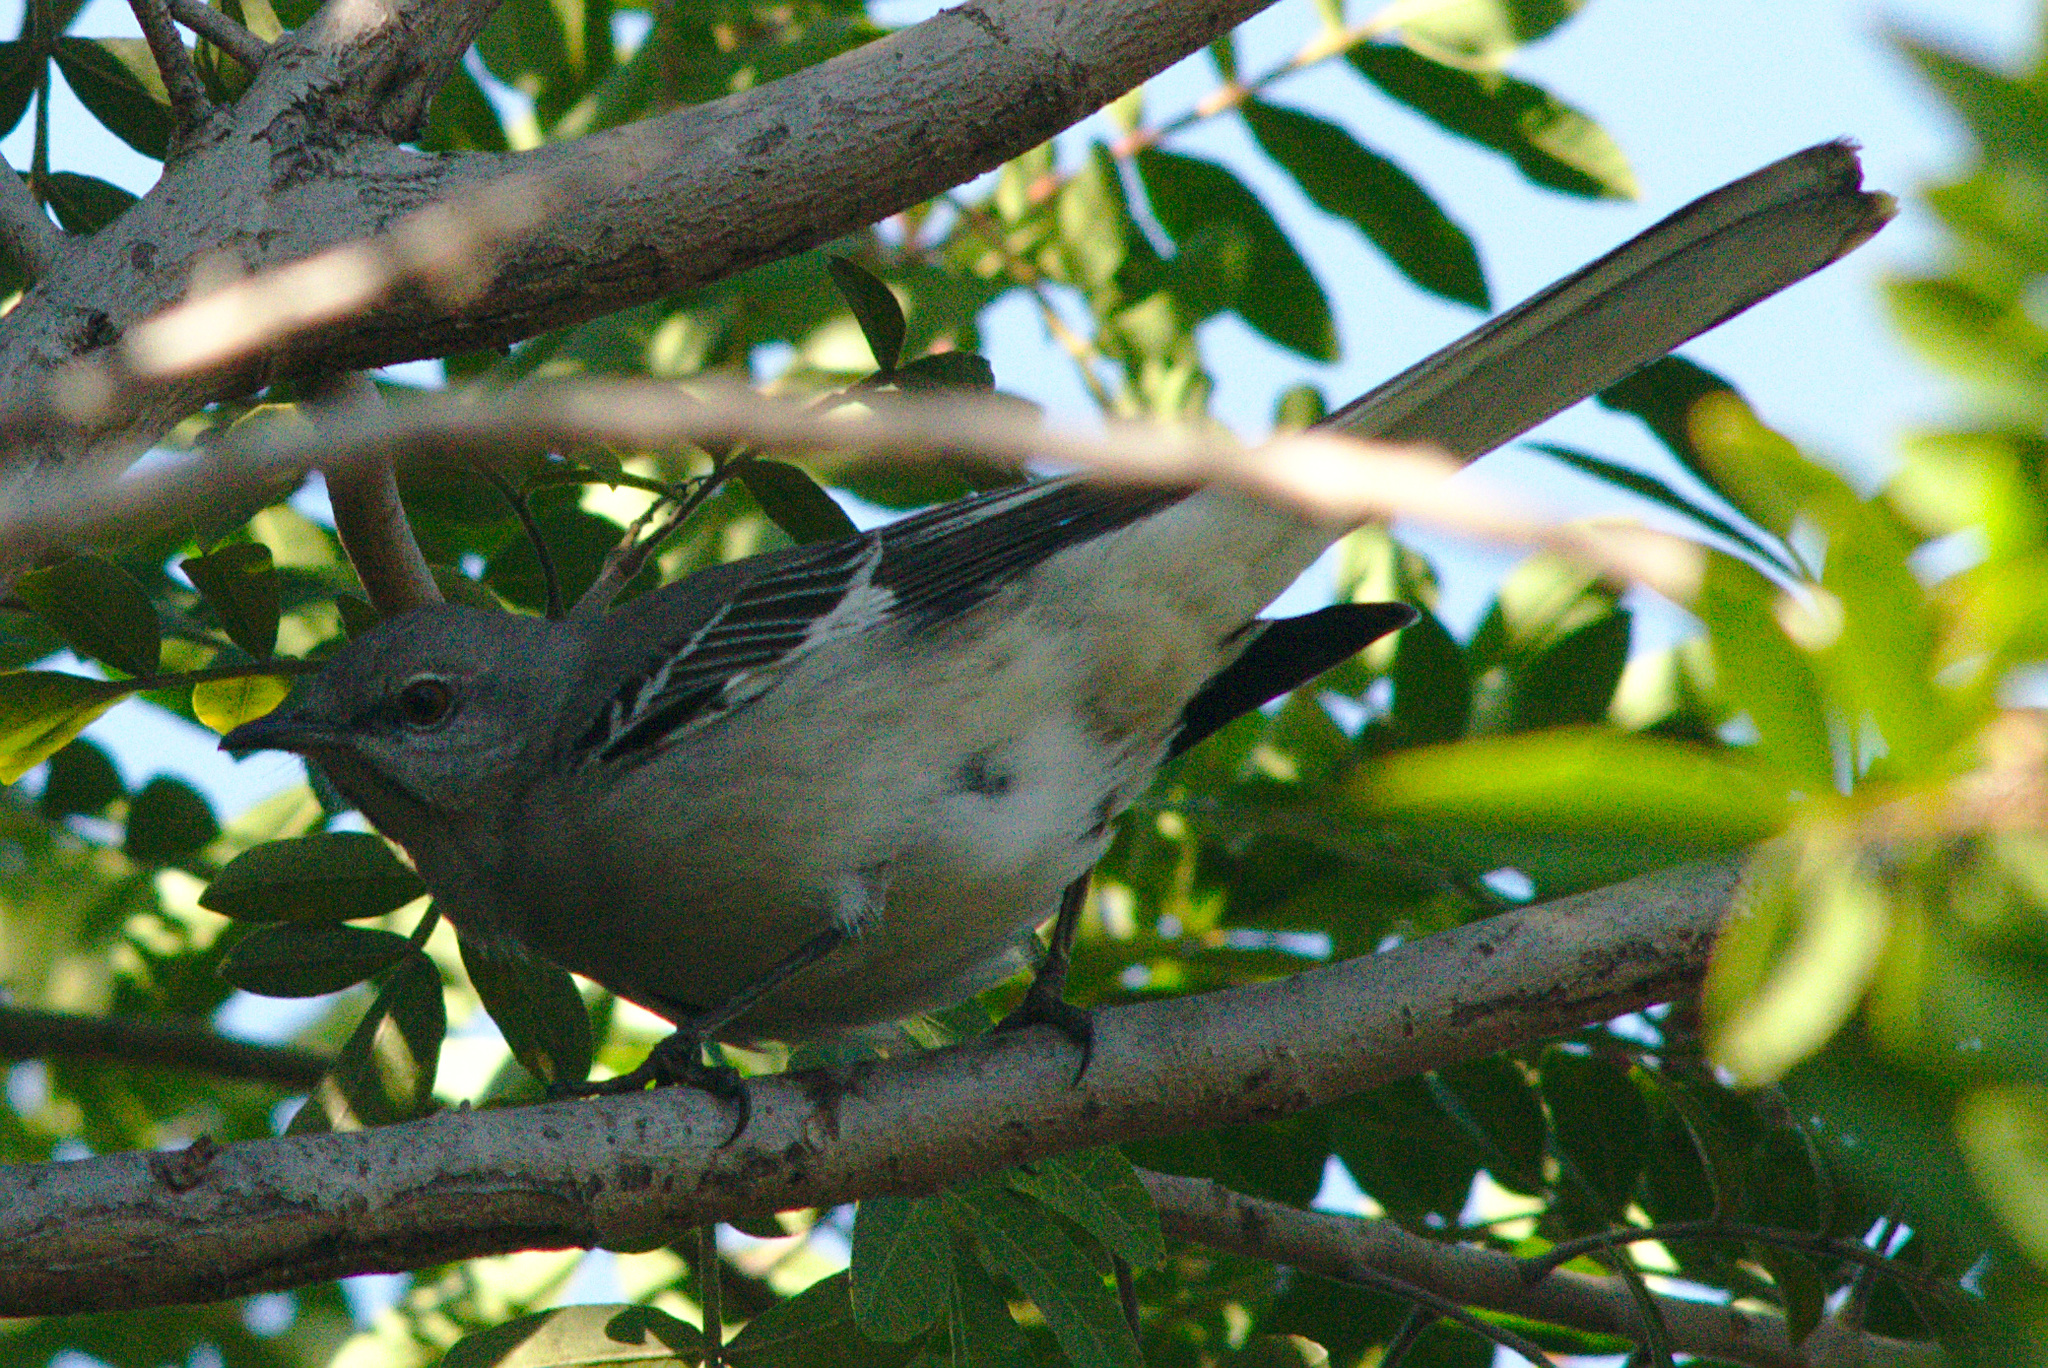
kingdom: Animalia
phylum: Chordata
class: Aves
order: Passeriformes
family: Mimidae
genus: Mimus
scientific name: Mimus polyglottos
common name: Northern mockingbird
